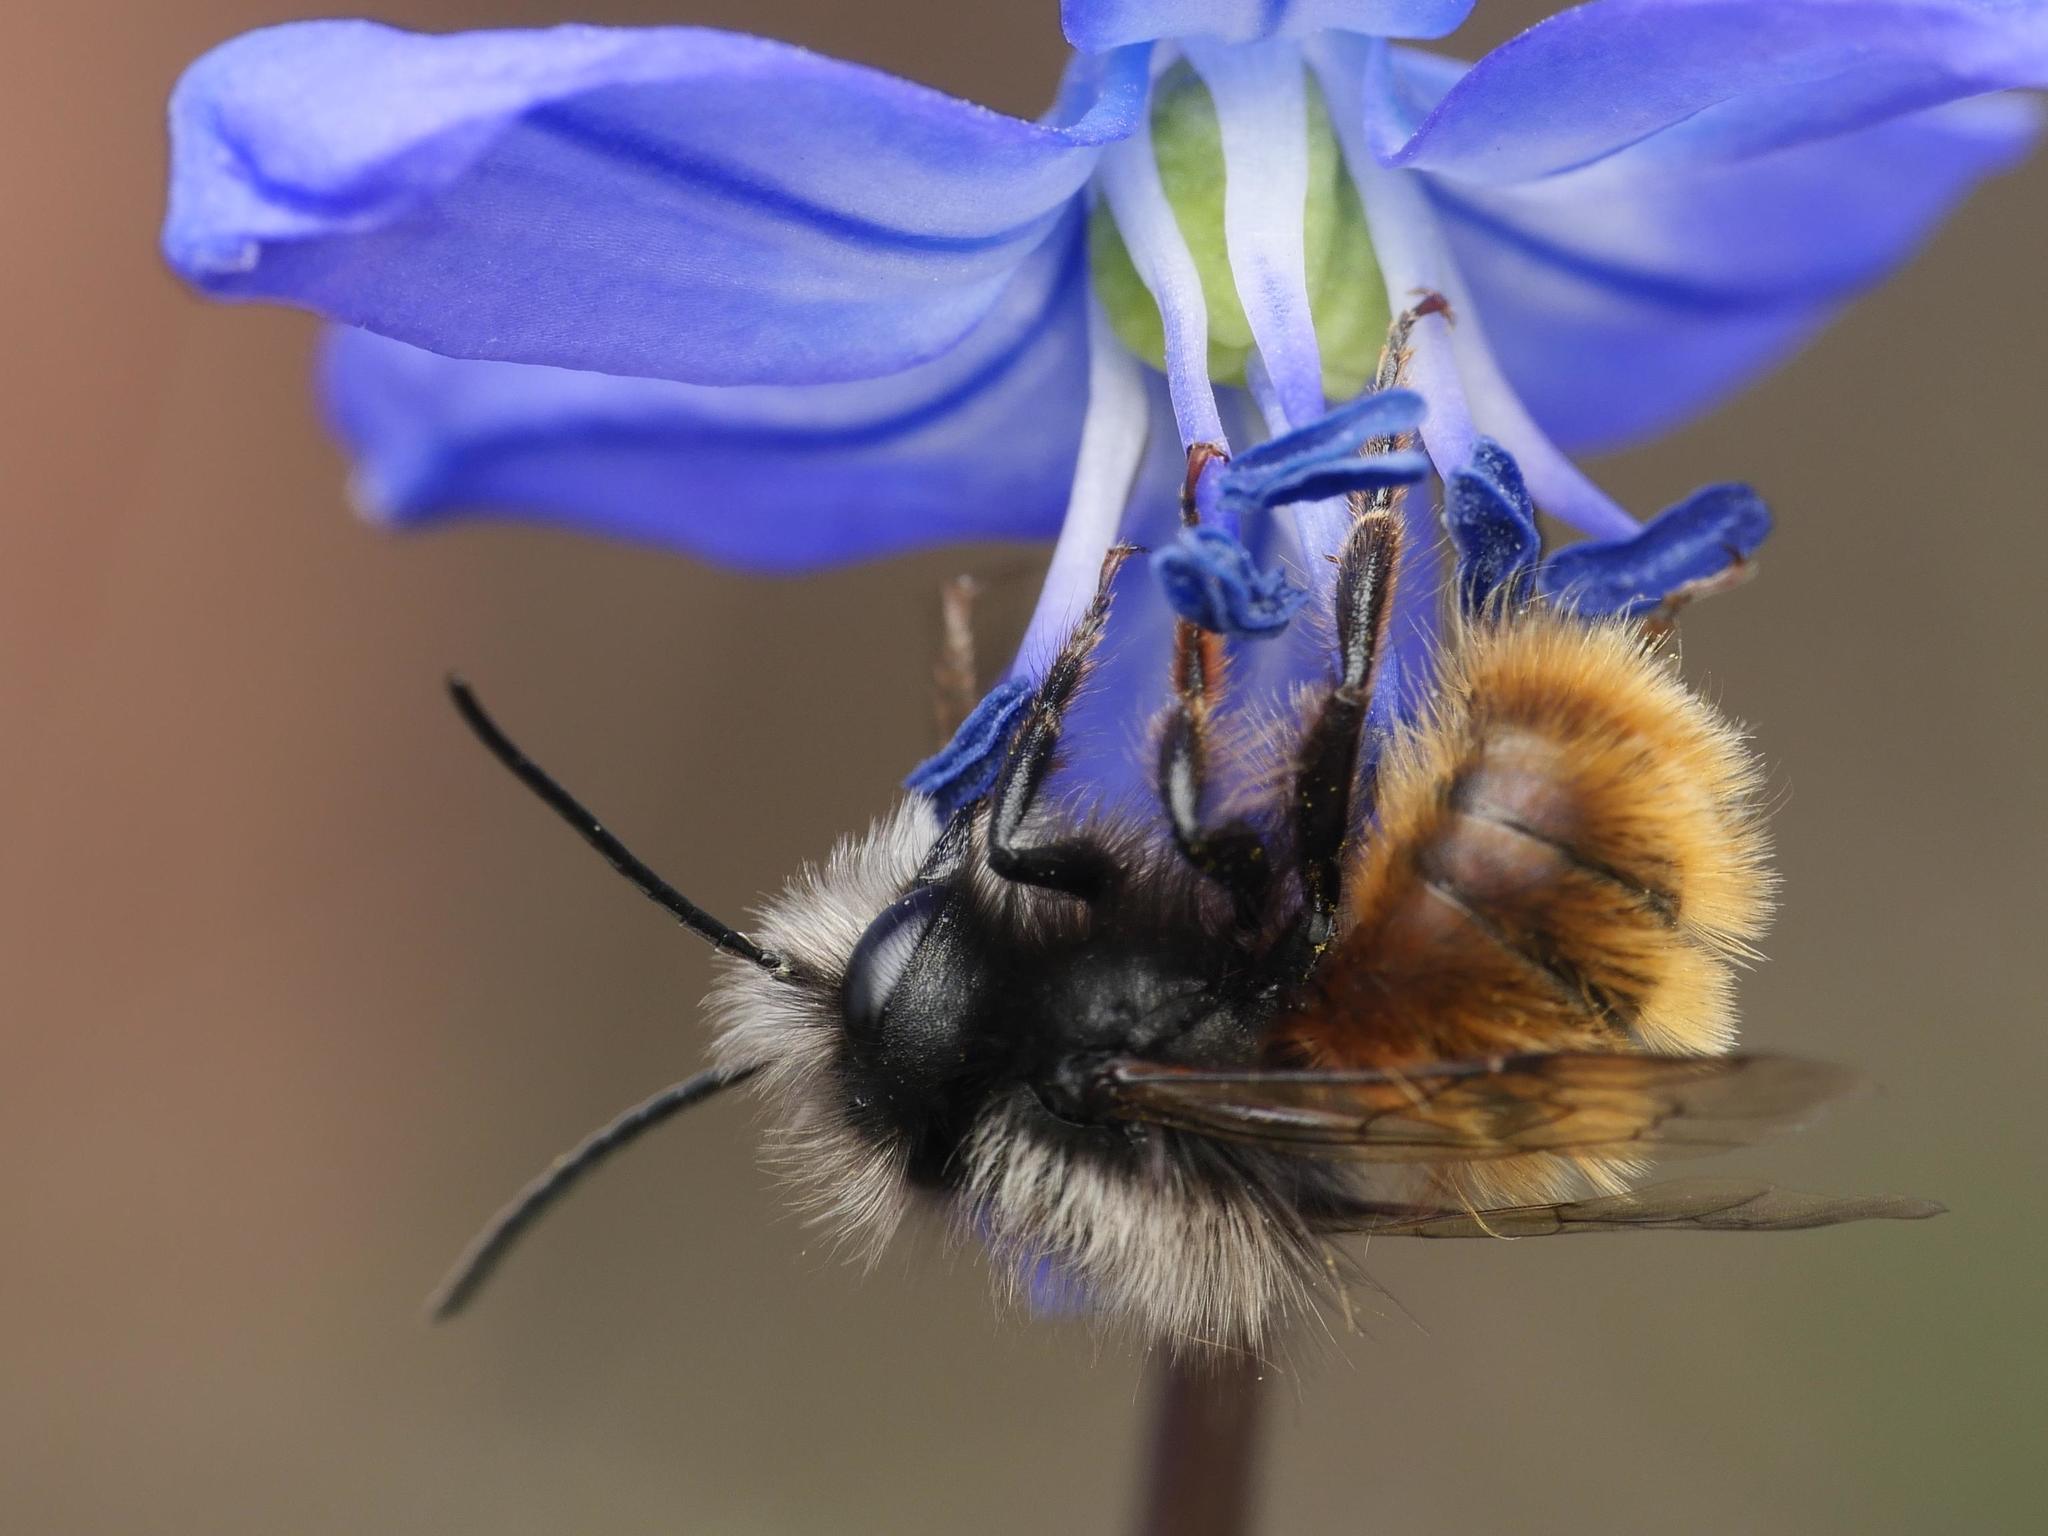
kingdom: Animalia
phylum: Arthropoda
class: Insecta
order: Hymenoptera
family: Megachilidae
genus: Osmia
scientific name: Osmia cornuta
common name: Mason bee
